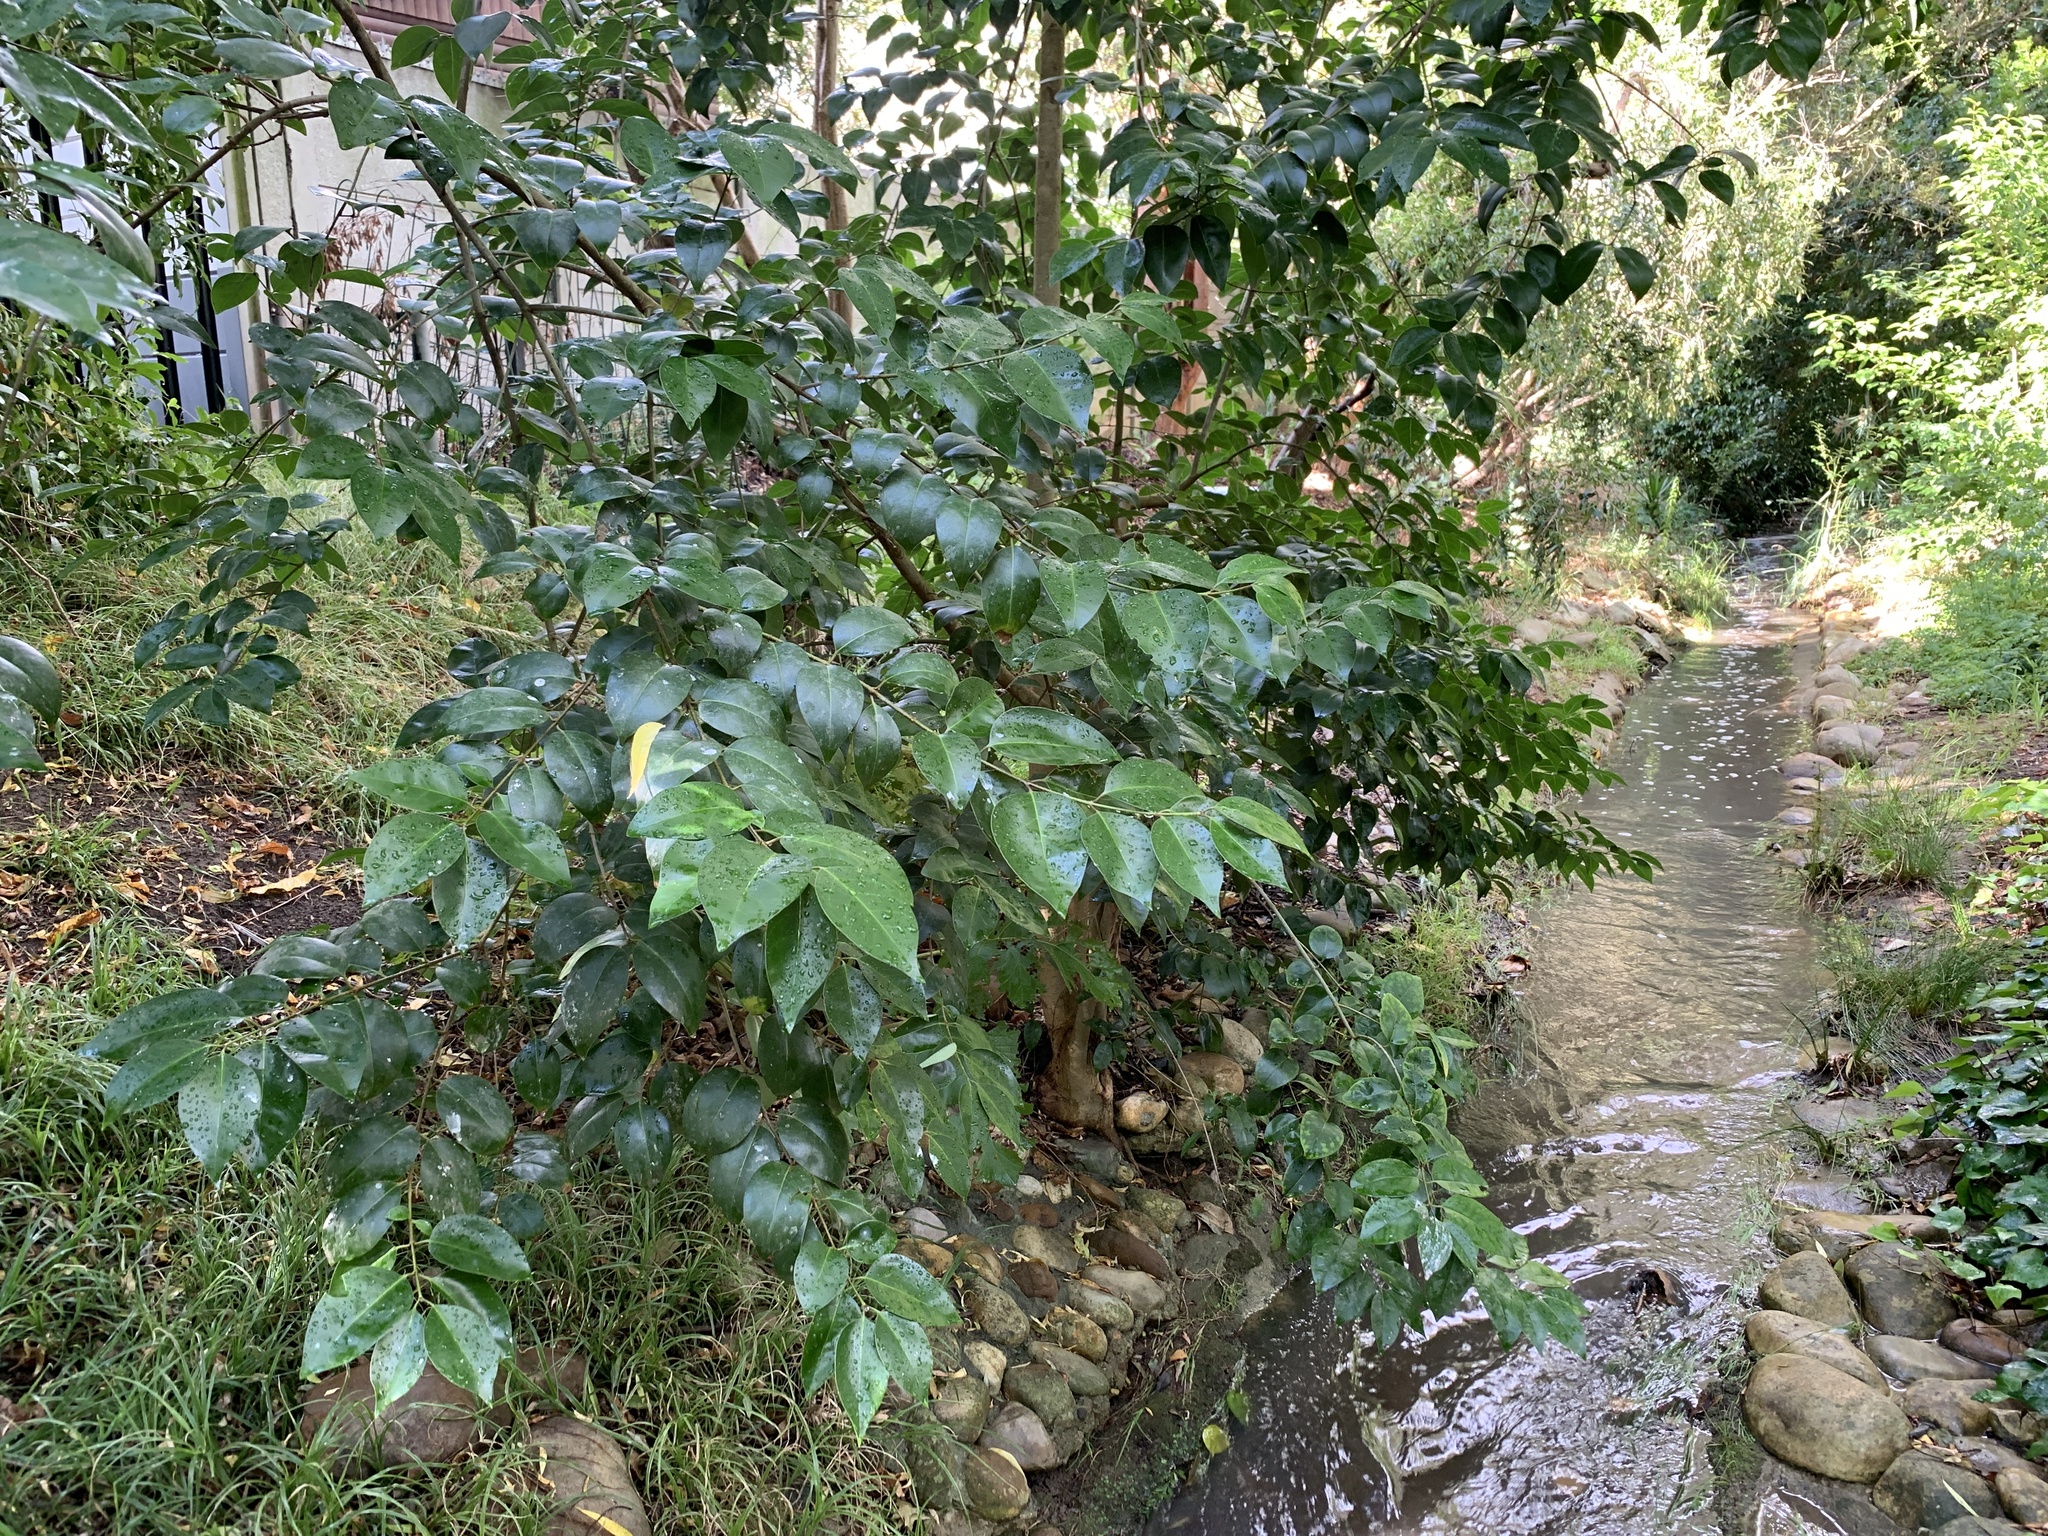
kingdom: Plantae
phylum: Tracheophyta
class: Magnoliopsida
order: Lamiales
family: Oleaceae
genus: Ligustrum
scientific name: Ligustrum lucidum
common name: Glossy privet
